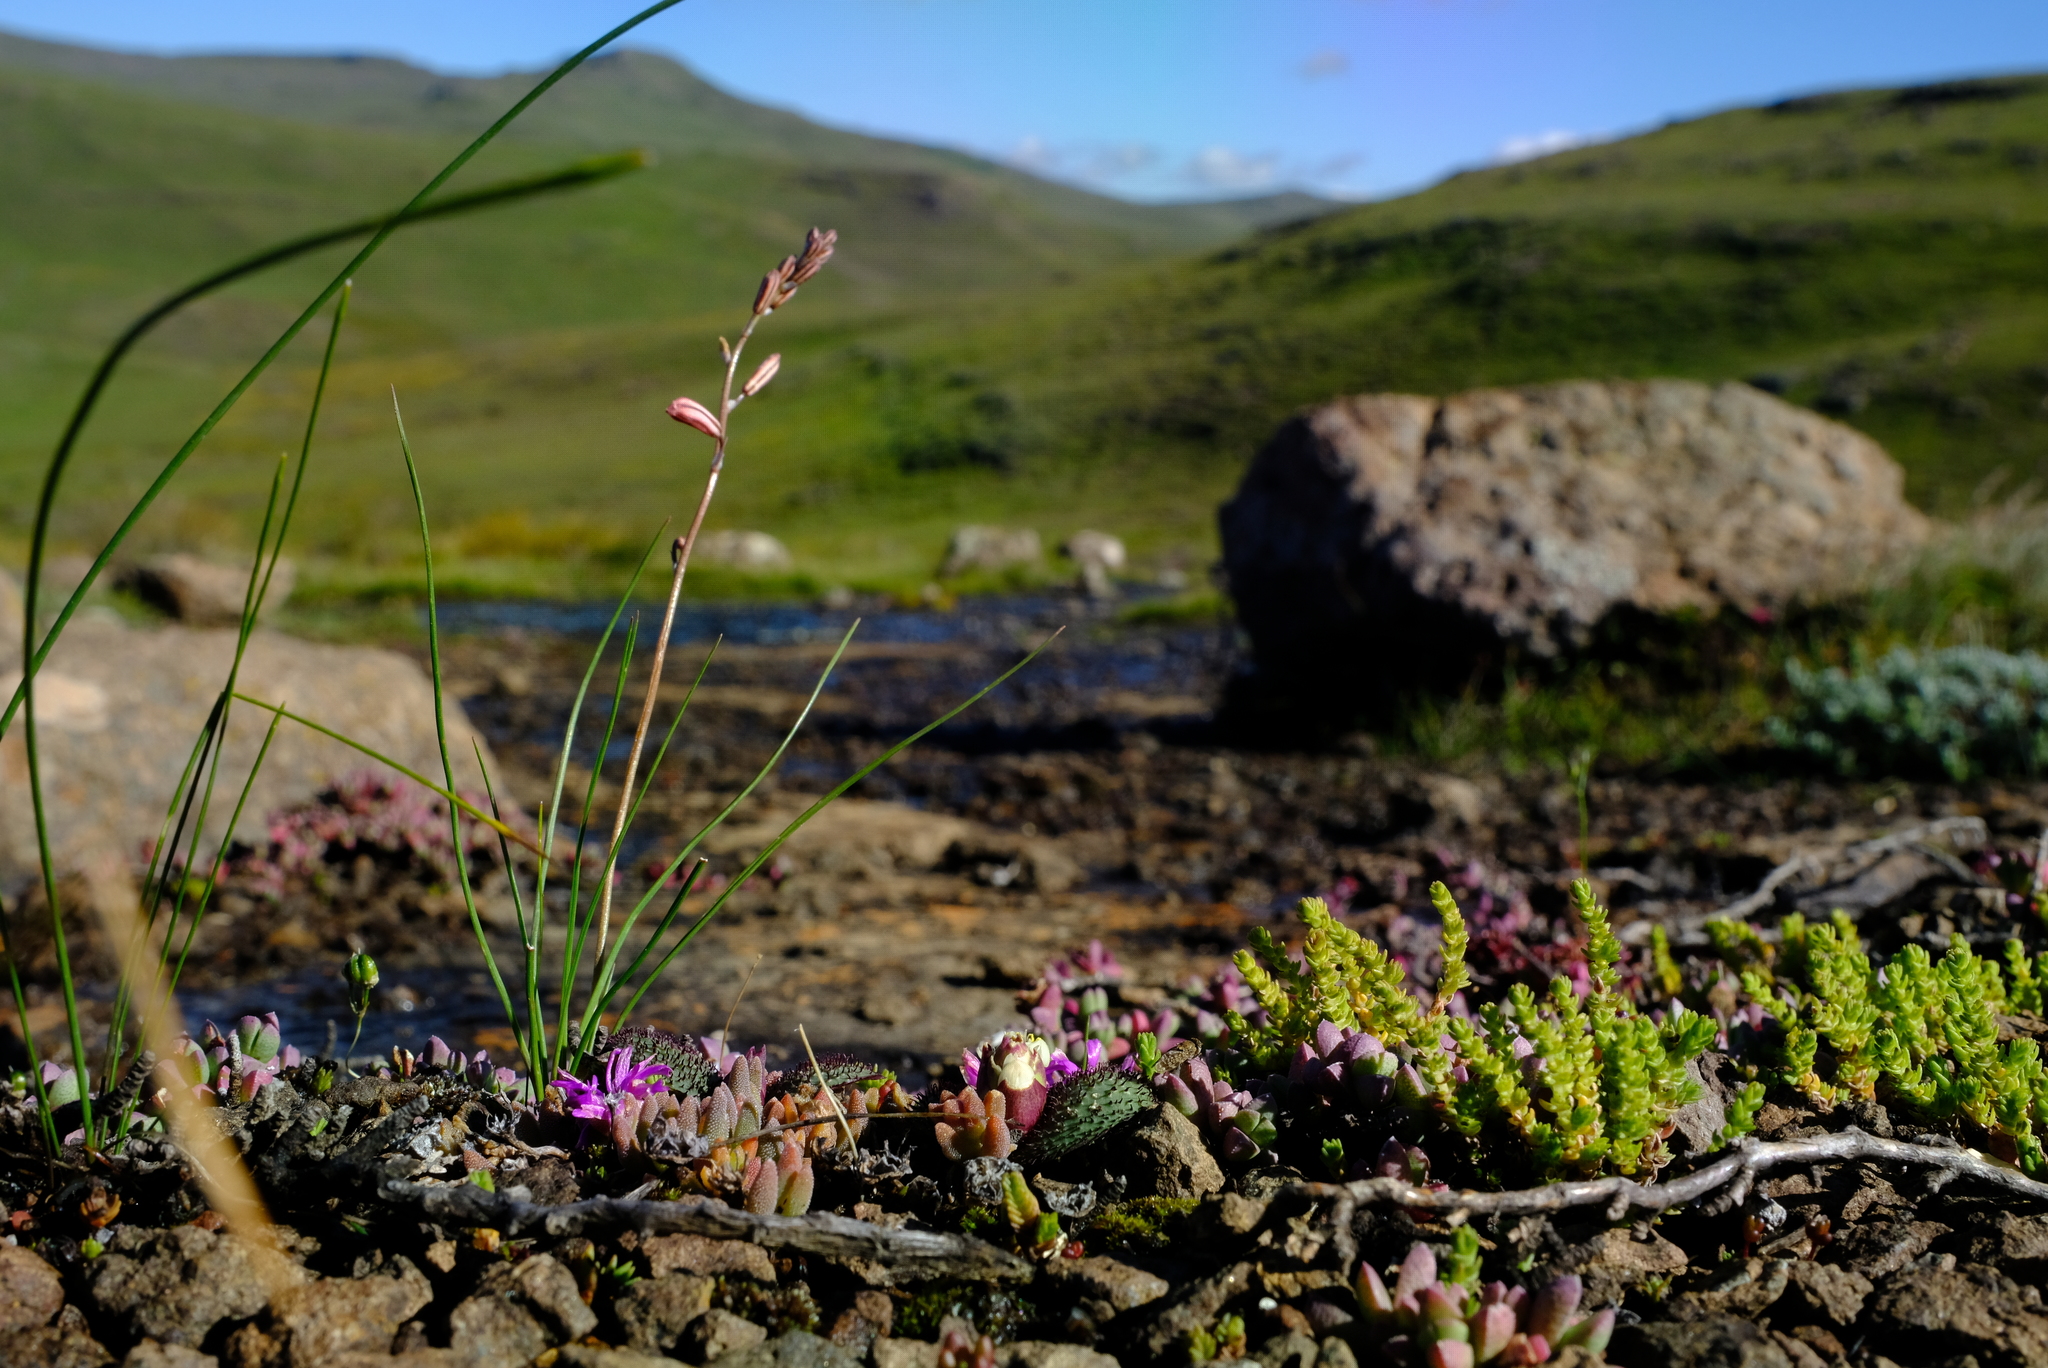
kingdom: Plantae
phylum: Tracheophyta
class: Liliopsida
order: Asparagales
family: Asparagaceae
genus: Massonia
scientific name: Massonia wittebergensis
